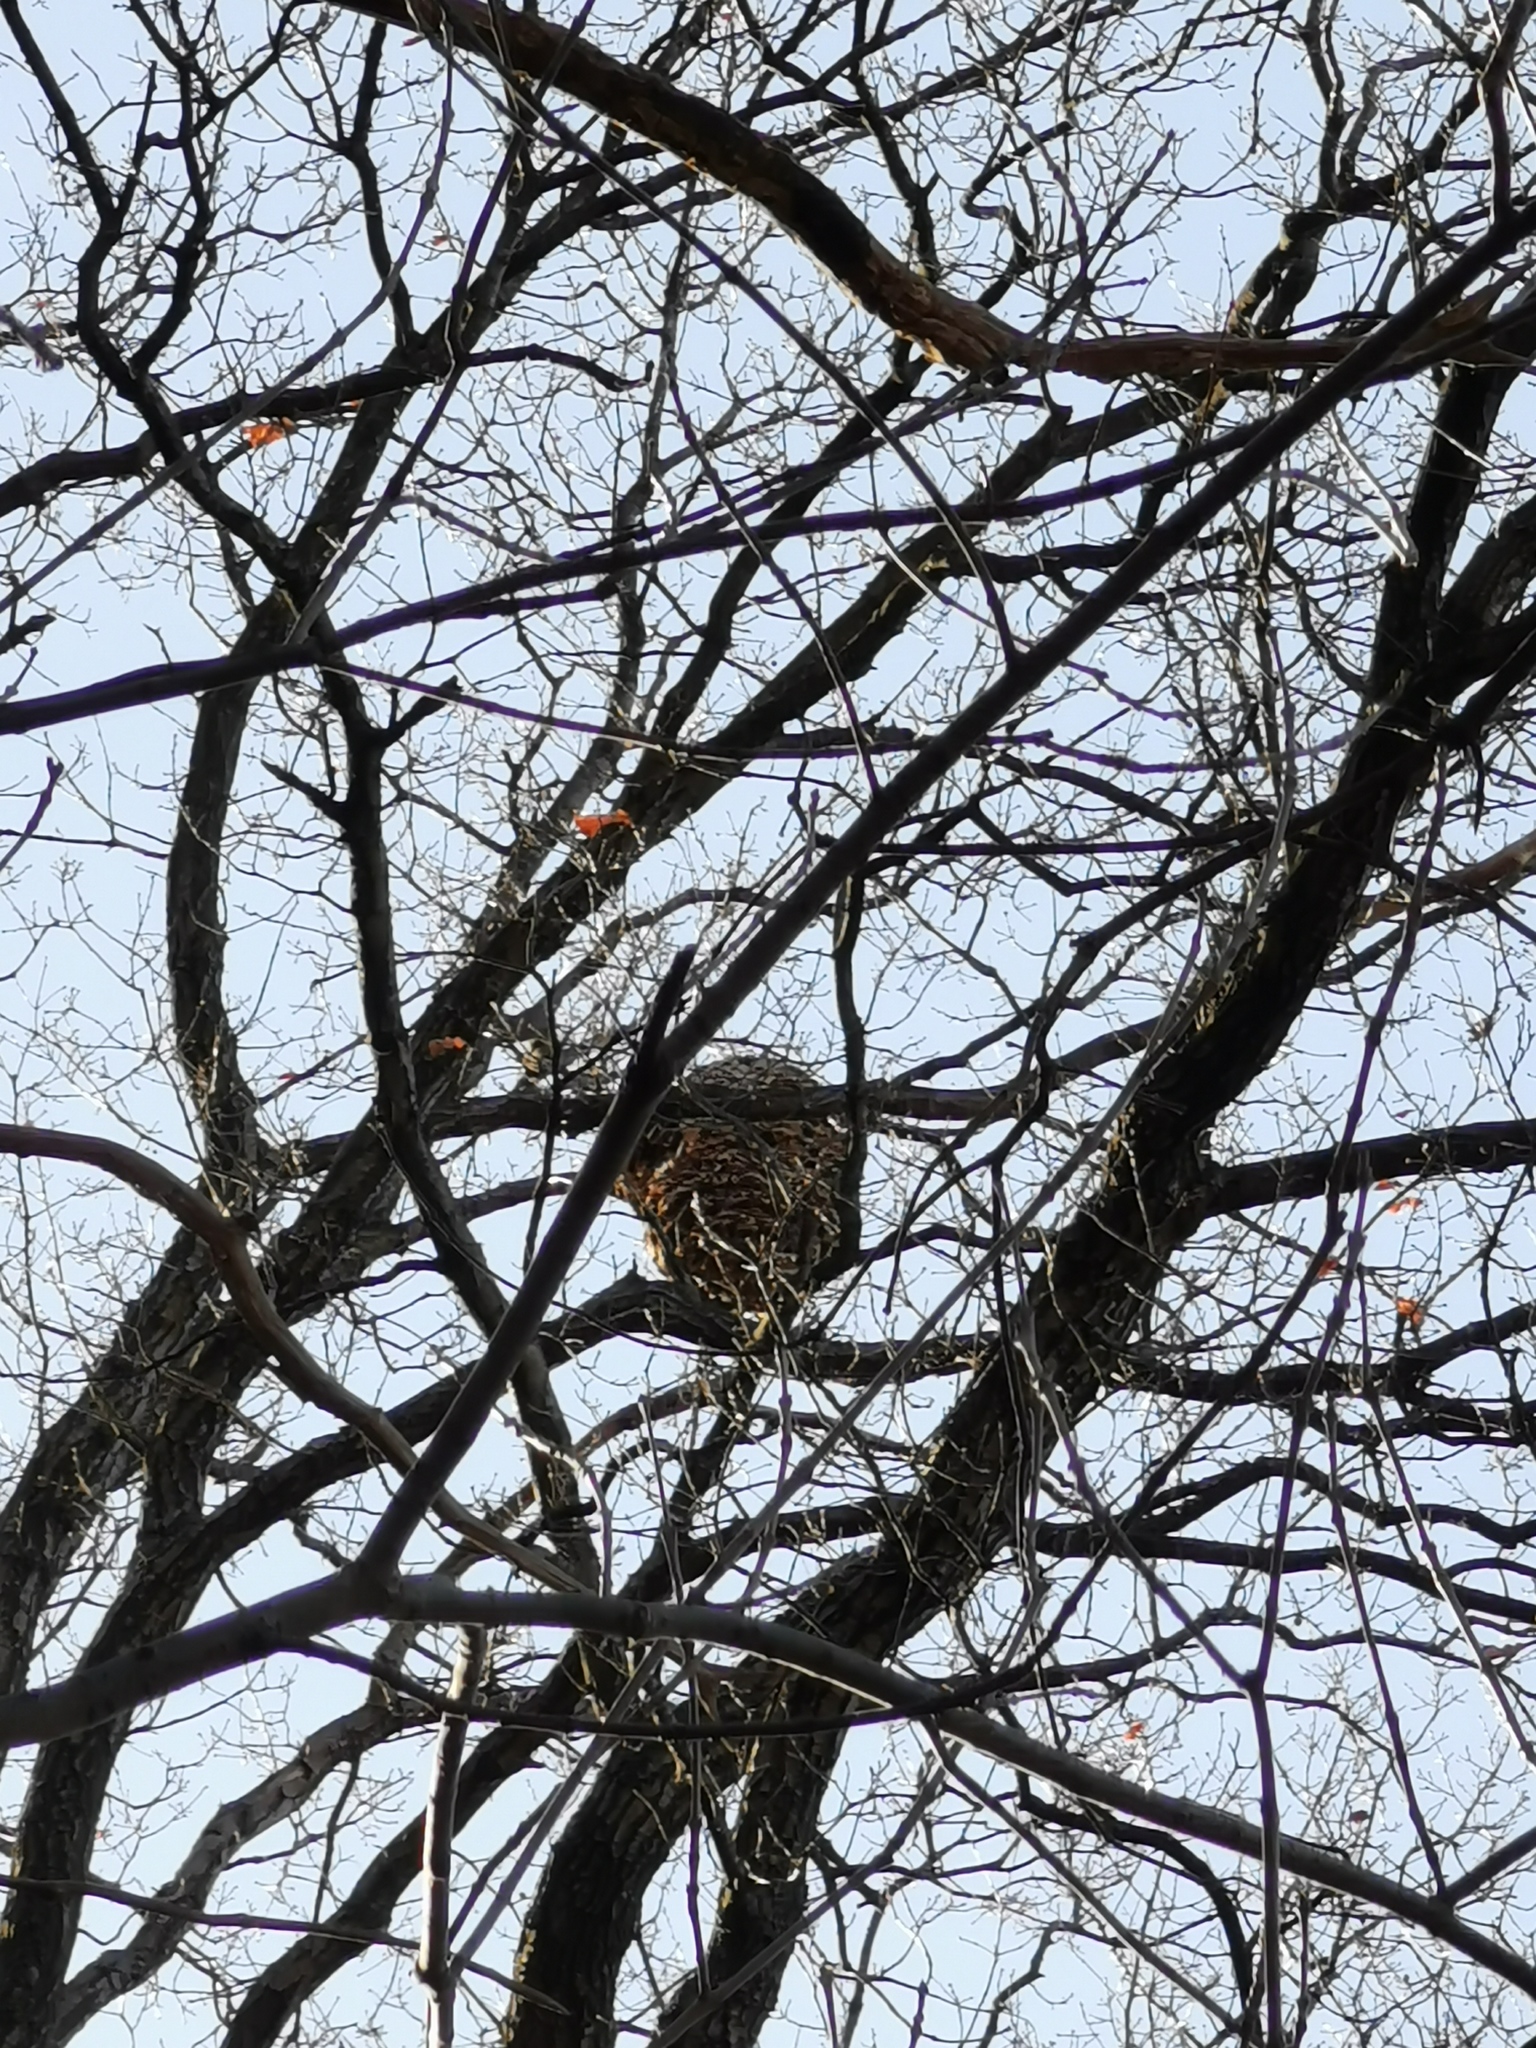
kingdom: Animalia
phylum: Arthropoda
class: Insecta
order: Hymenoptera
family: Vespidae
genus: Vespa
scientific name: Vespa velutina
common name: Asian hornet
